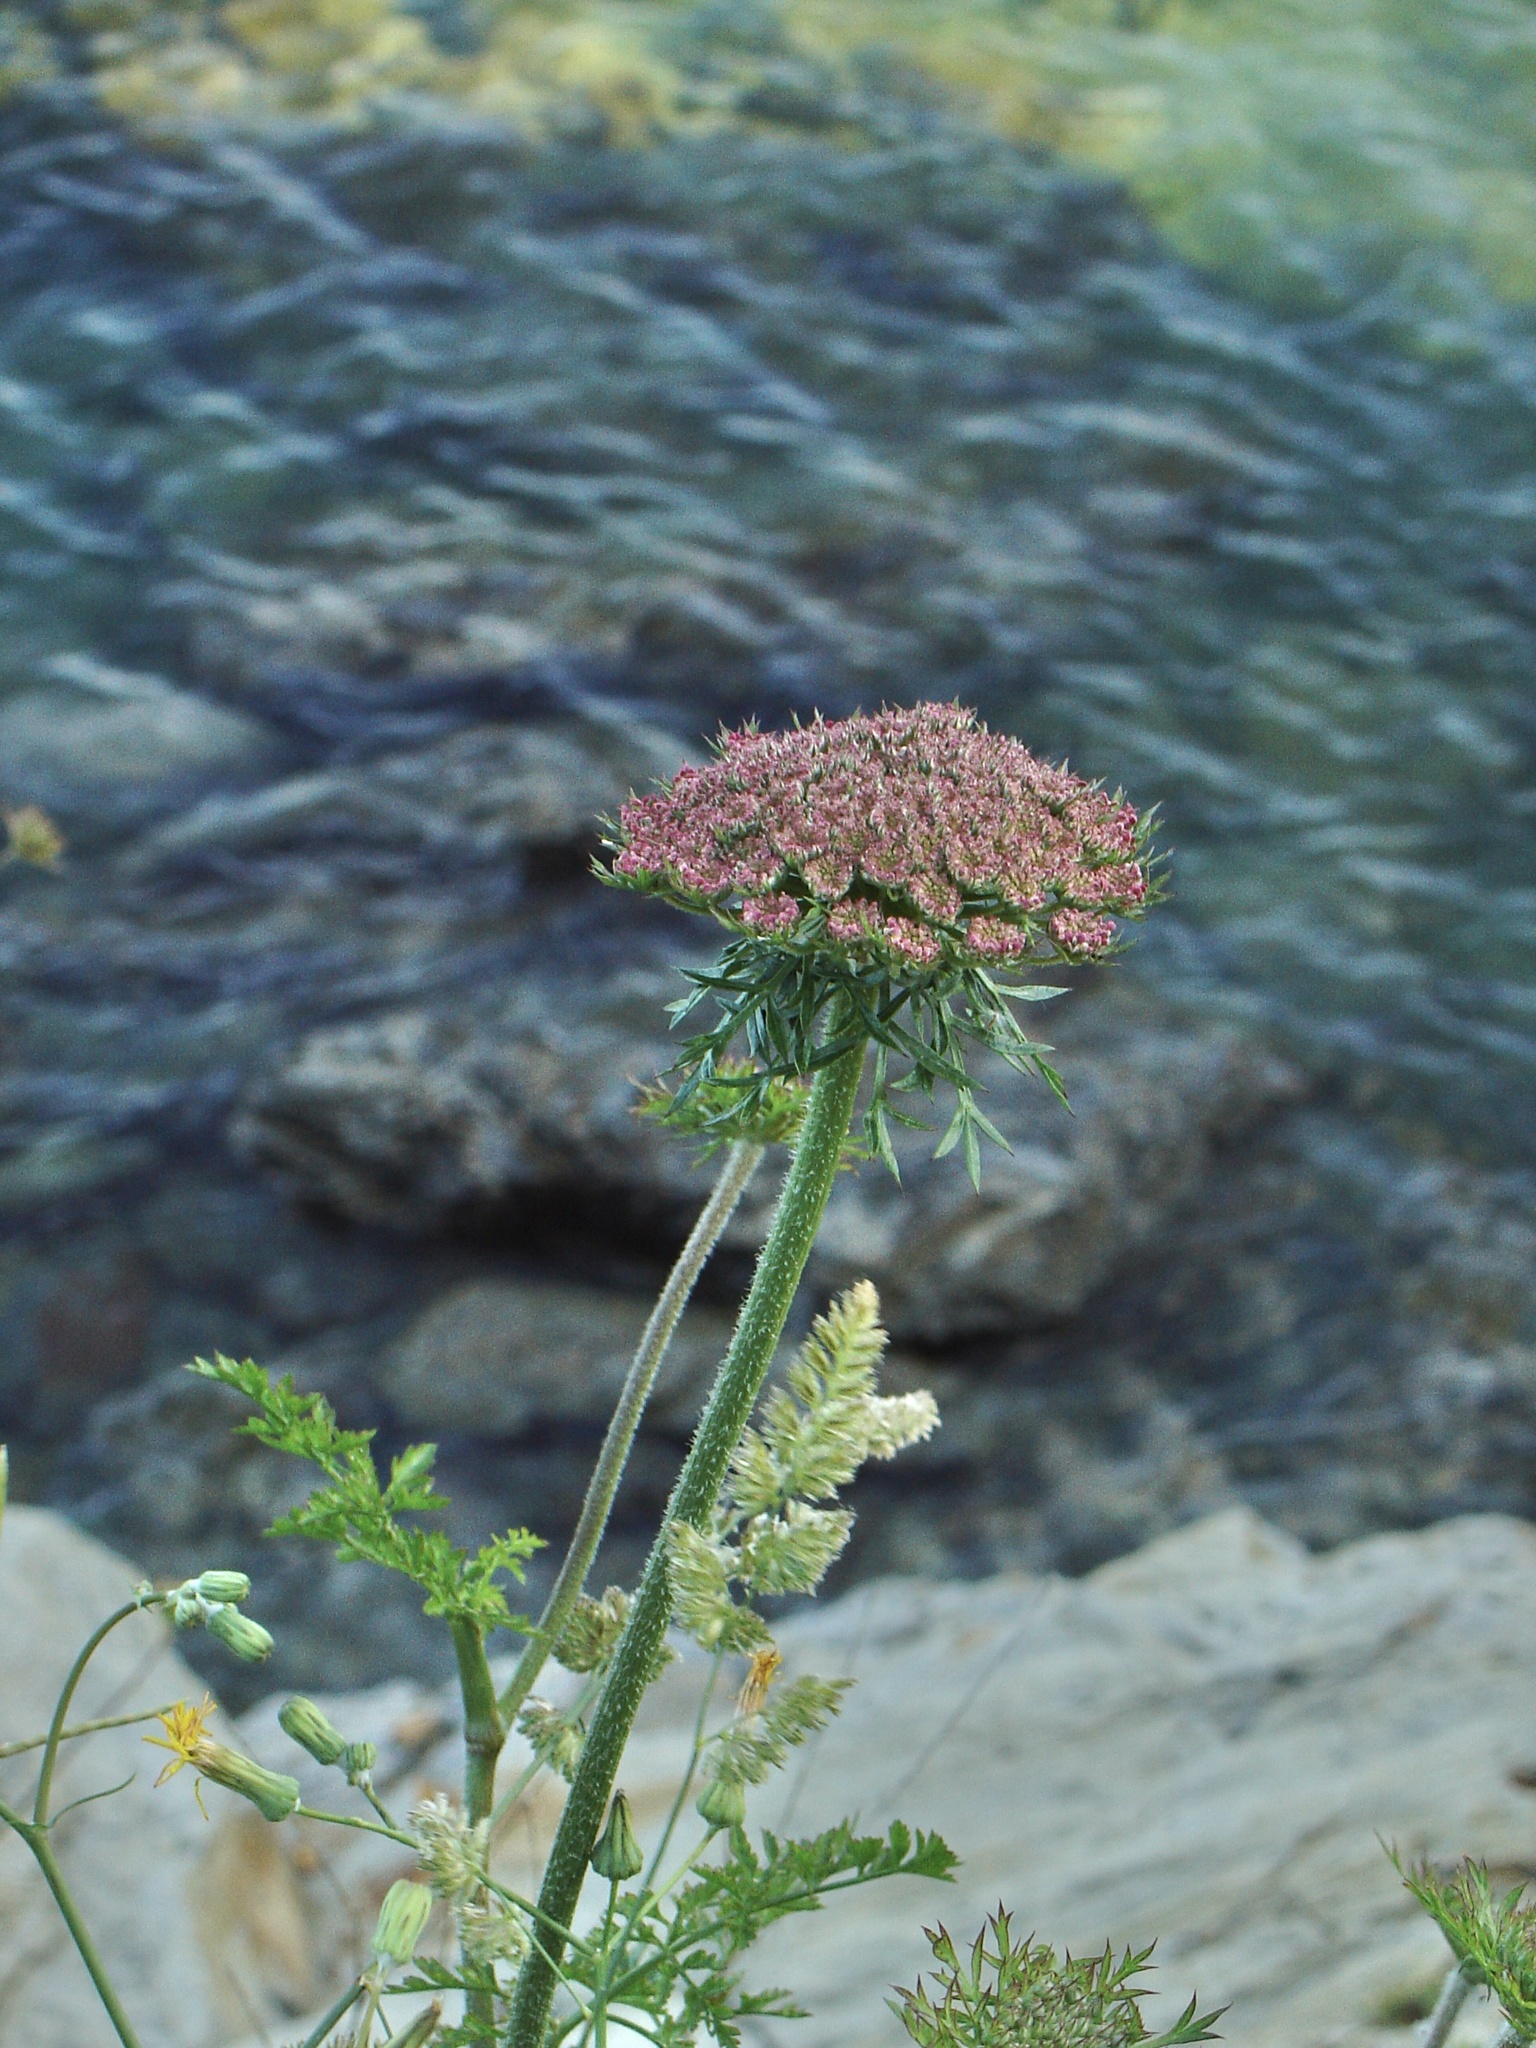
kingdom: Plantae
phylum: Tracheophyta
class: Magnoliopsida
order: Apiales
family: Apiaceae
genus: Daucus
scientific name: Daucus carota
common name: Wild carrot
